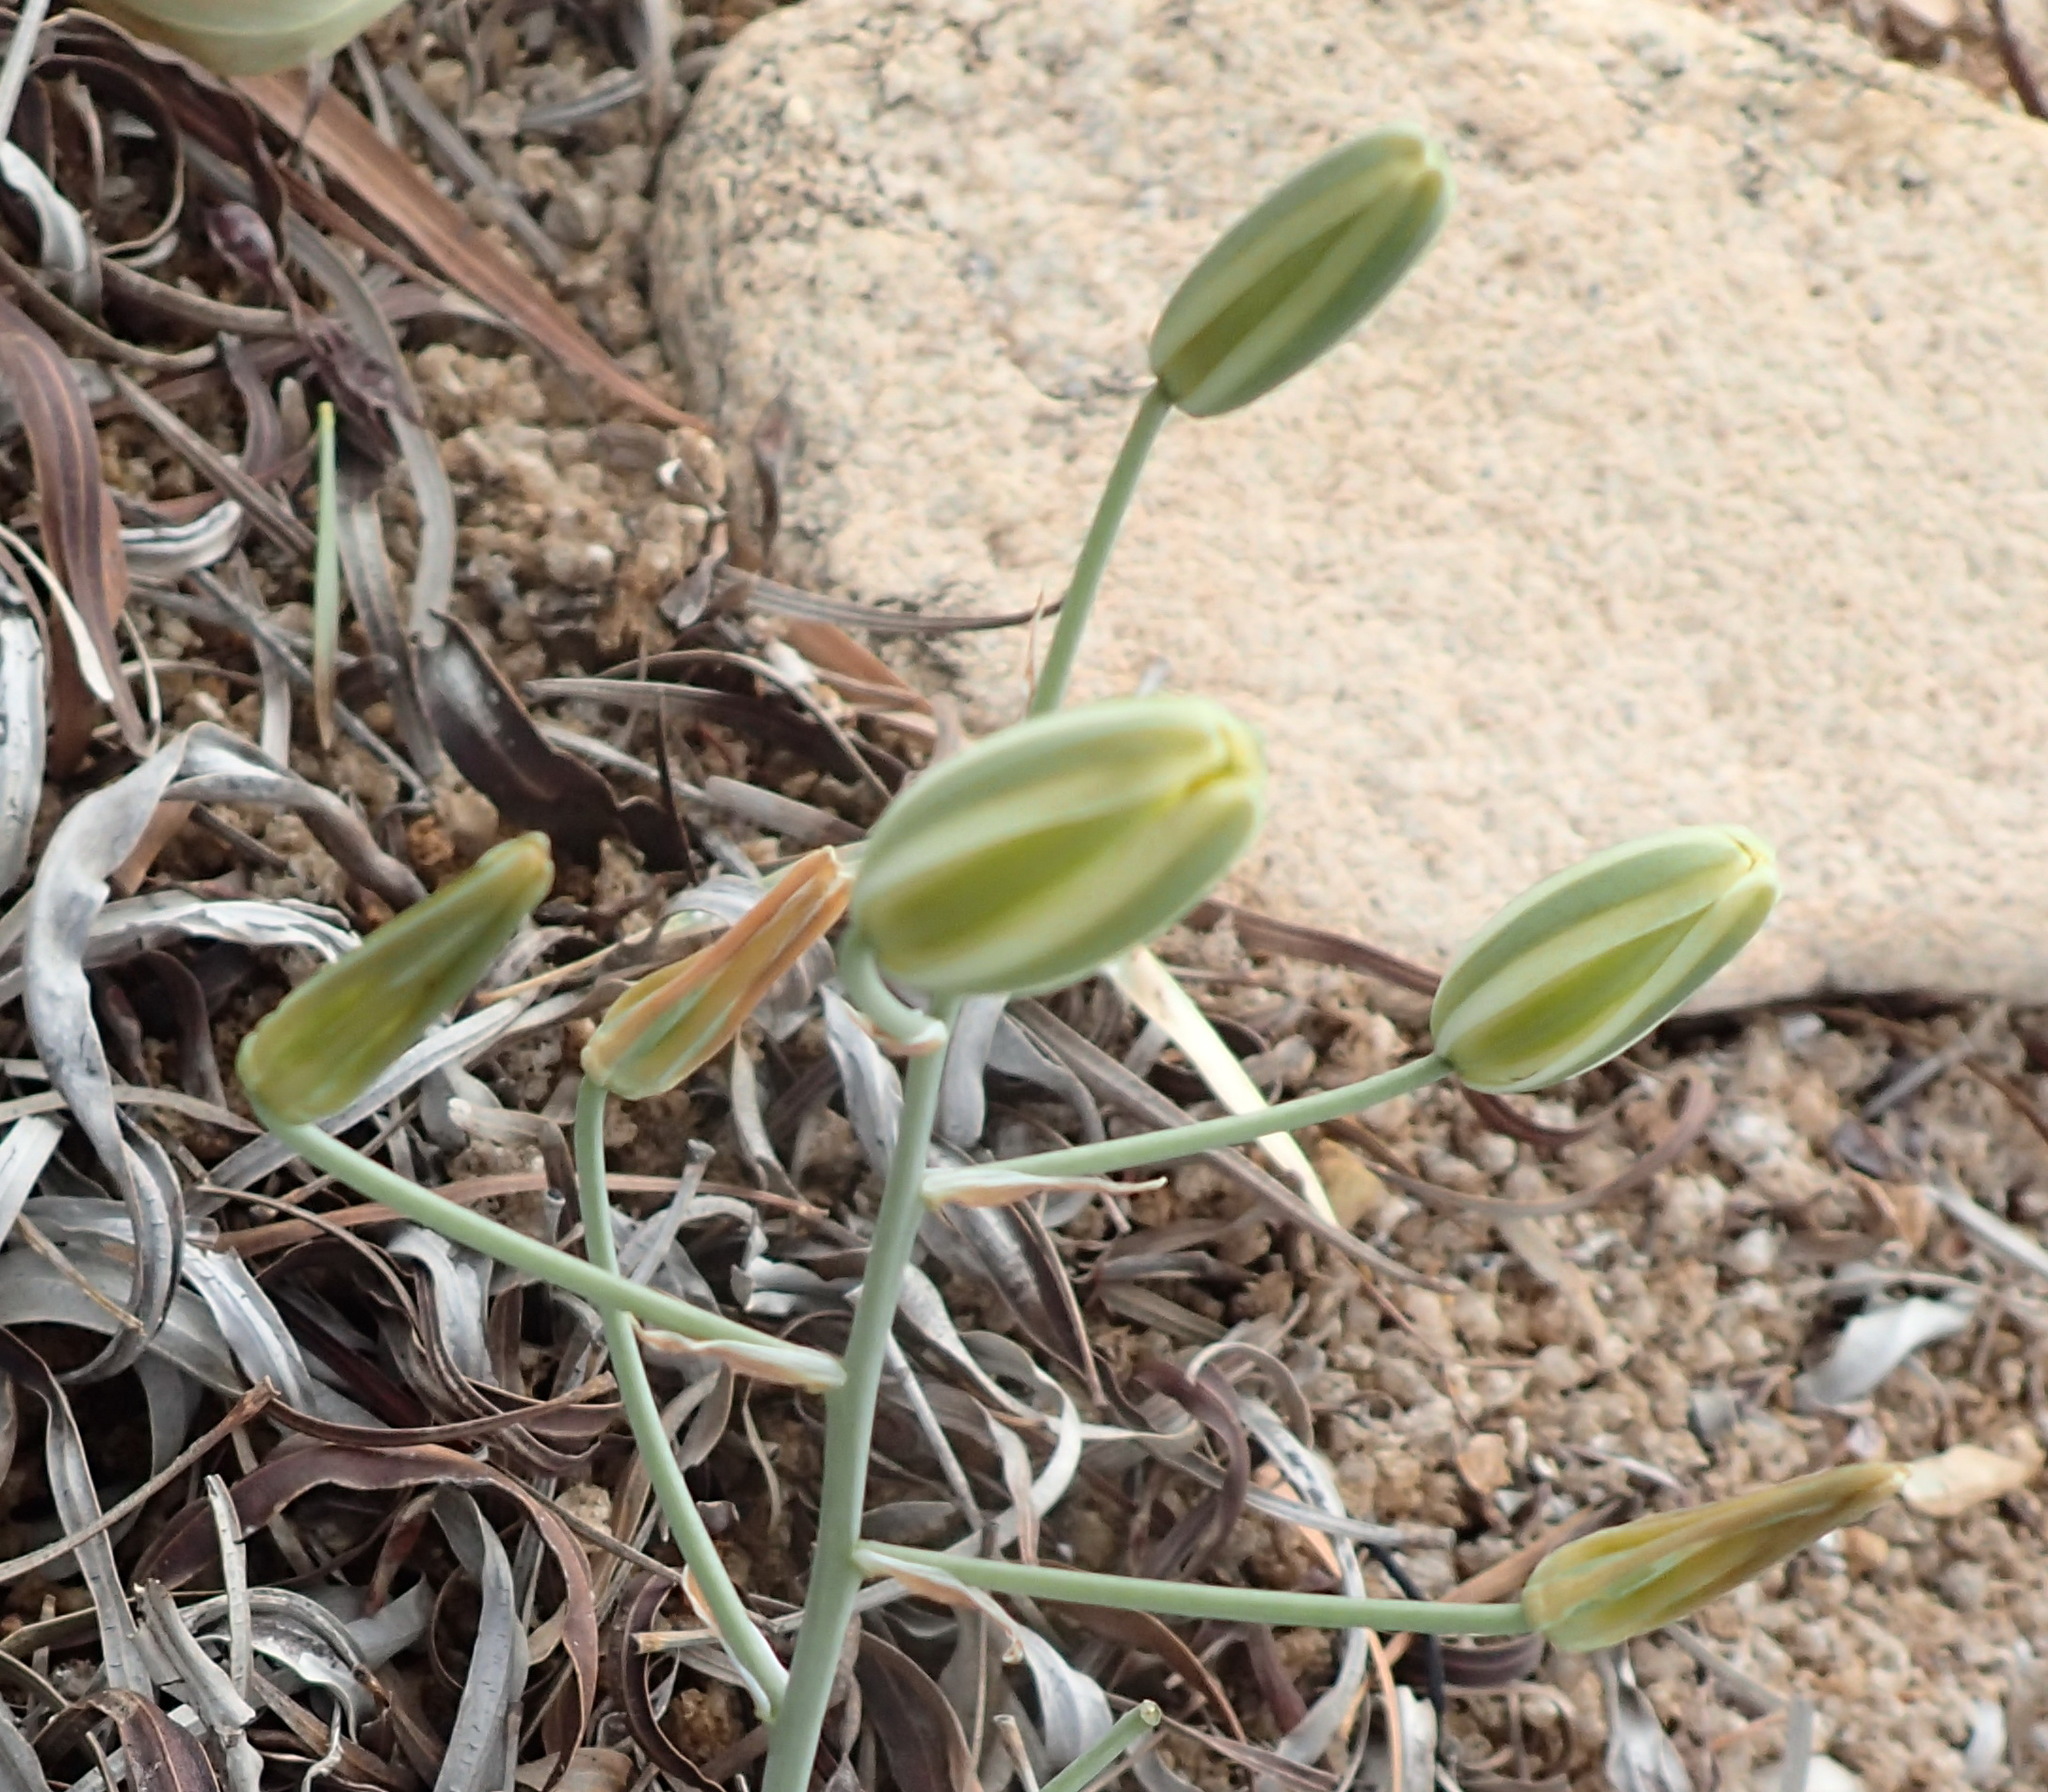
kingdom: Plantae
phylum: Tracheophyta
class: Liliopsida
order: Asparagales
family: Asparagaceae
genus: Albuca
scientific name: Albuca longipes
